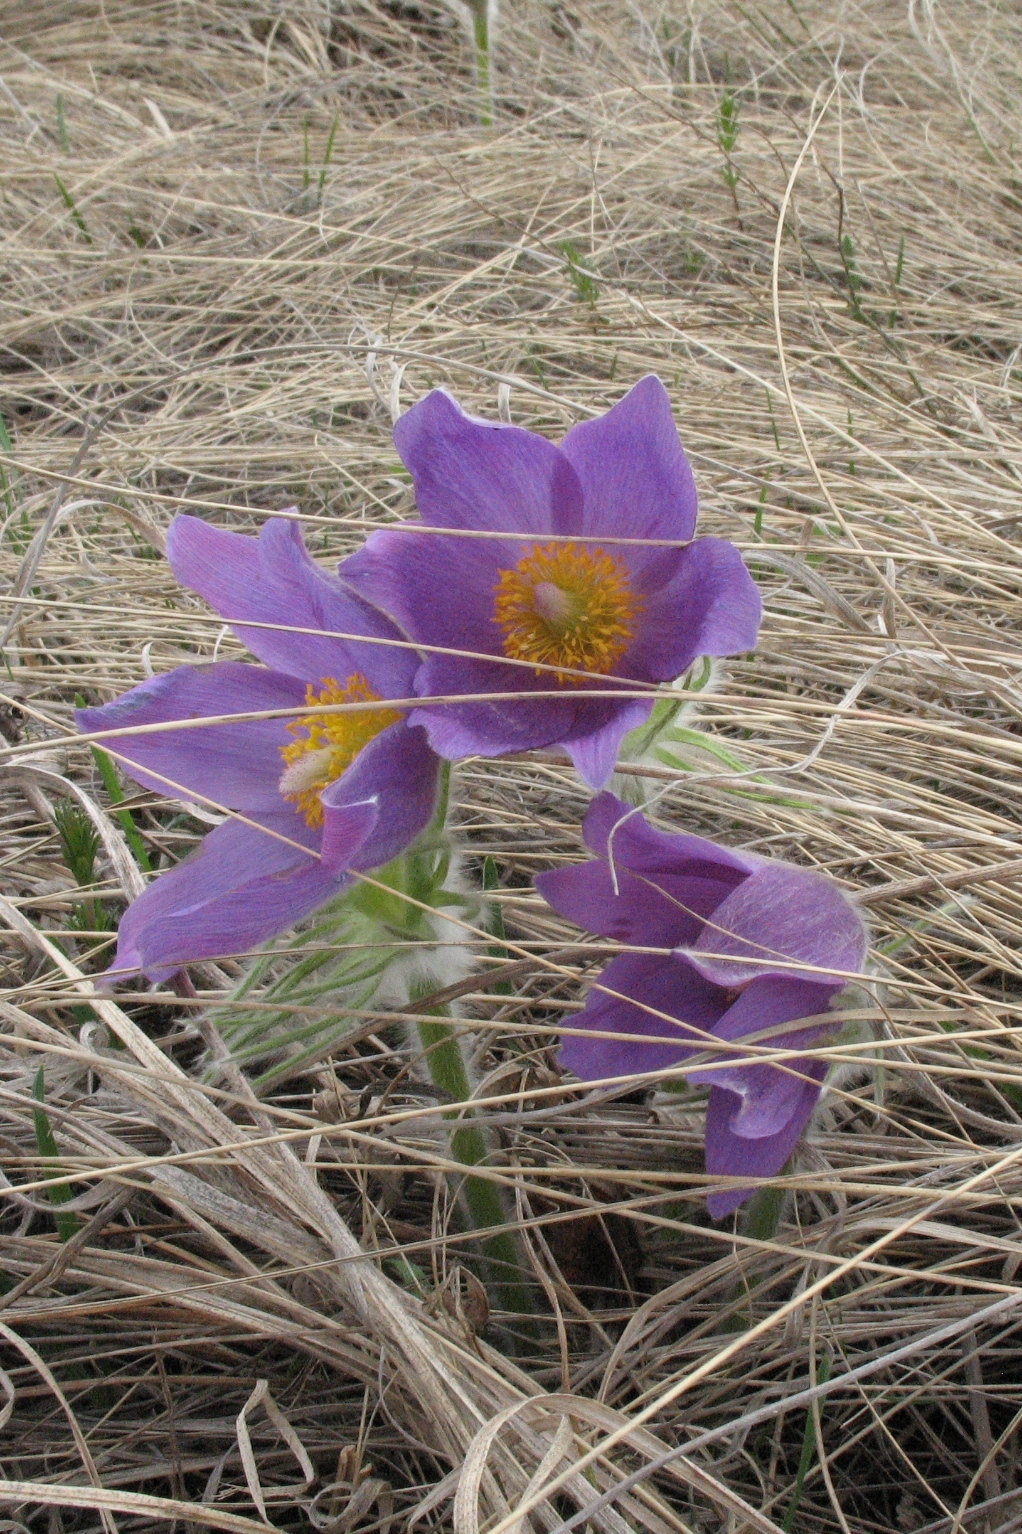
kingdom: Plantae
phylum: Tracheophyta
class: Magnoliopsida
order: Ranunculales
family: Ranunculaceae
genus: Pulsatilla
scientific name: Pulsatilla patens
